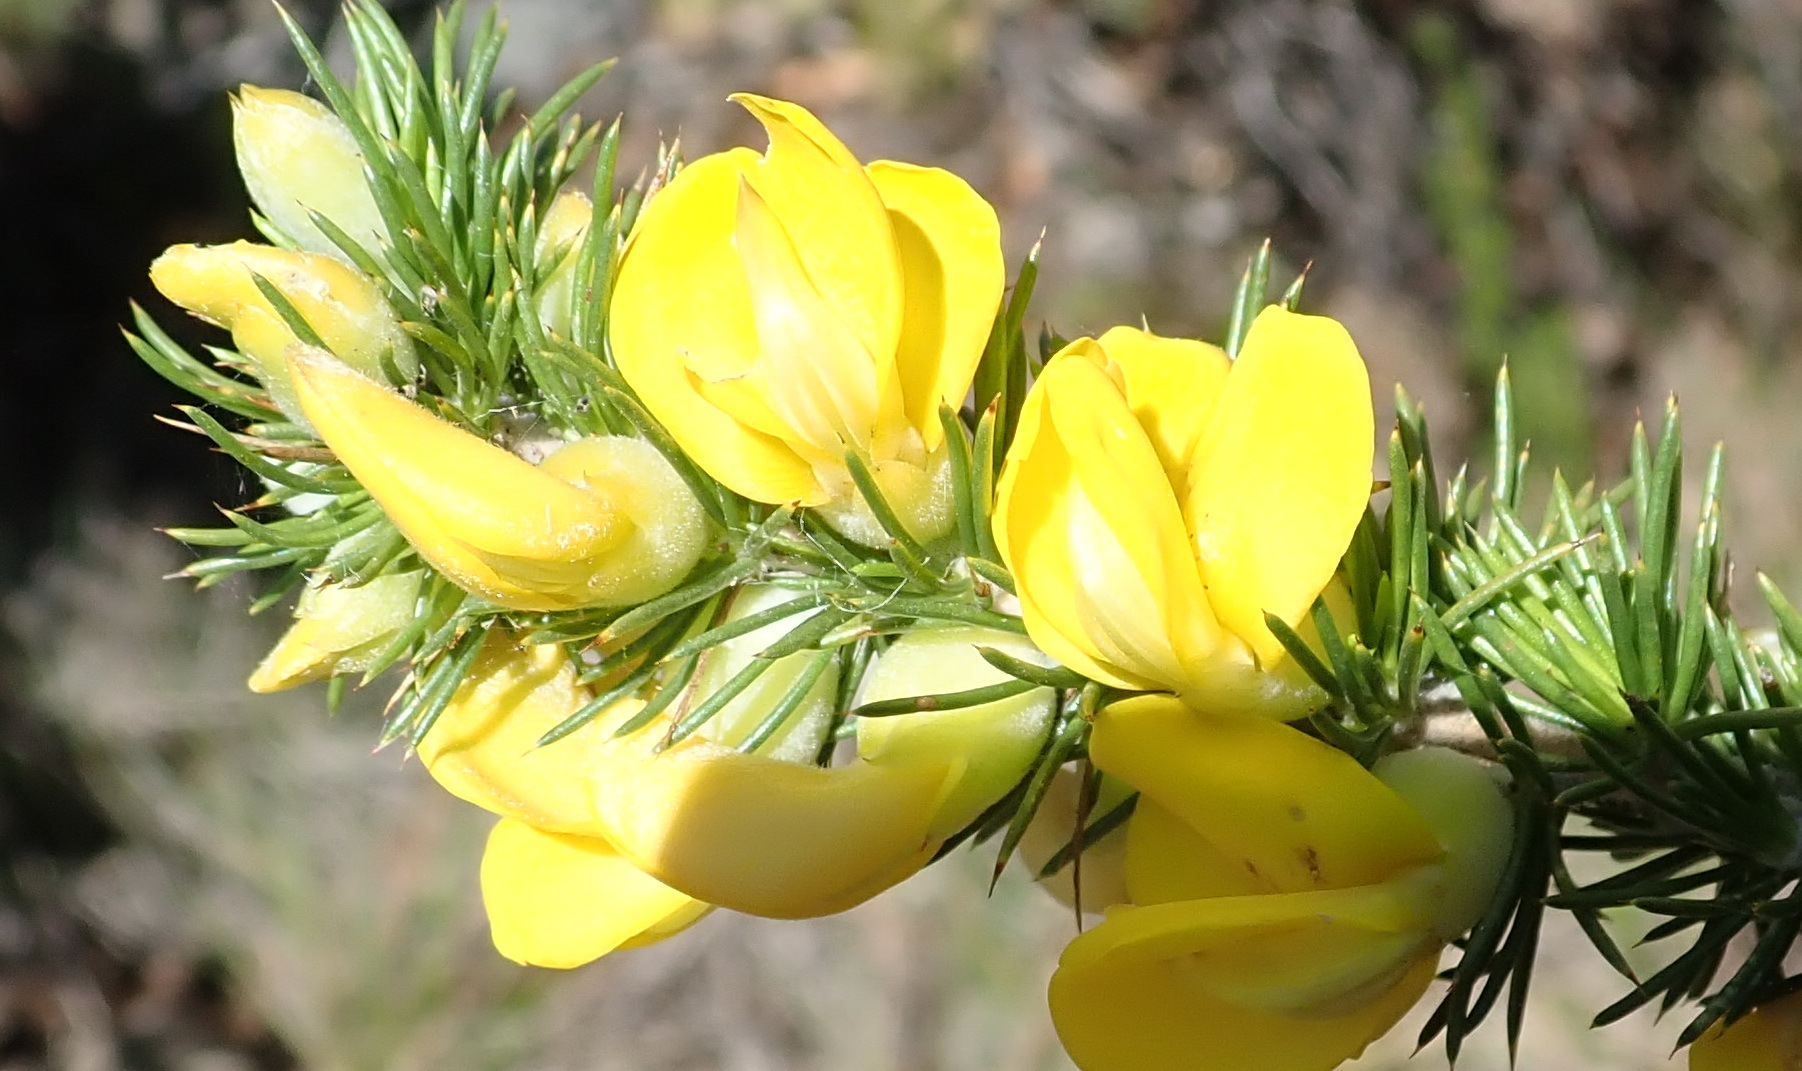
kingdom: Plantae
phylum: Tracheophyta
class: Magnoliopsida
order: Fabales
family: Fabaceae
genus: Aspalathus
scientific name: Aspalathus sceptrumaureum
